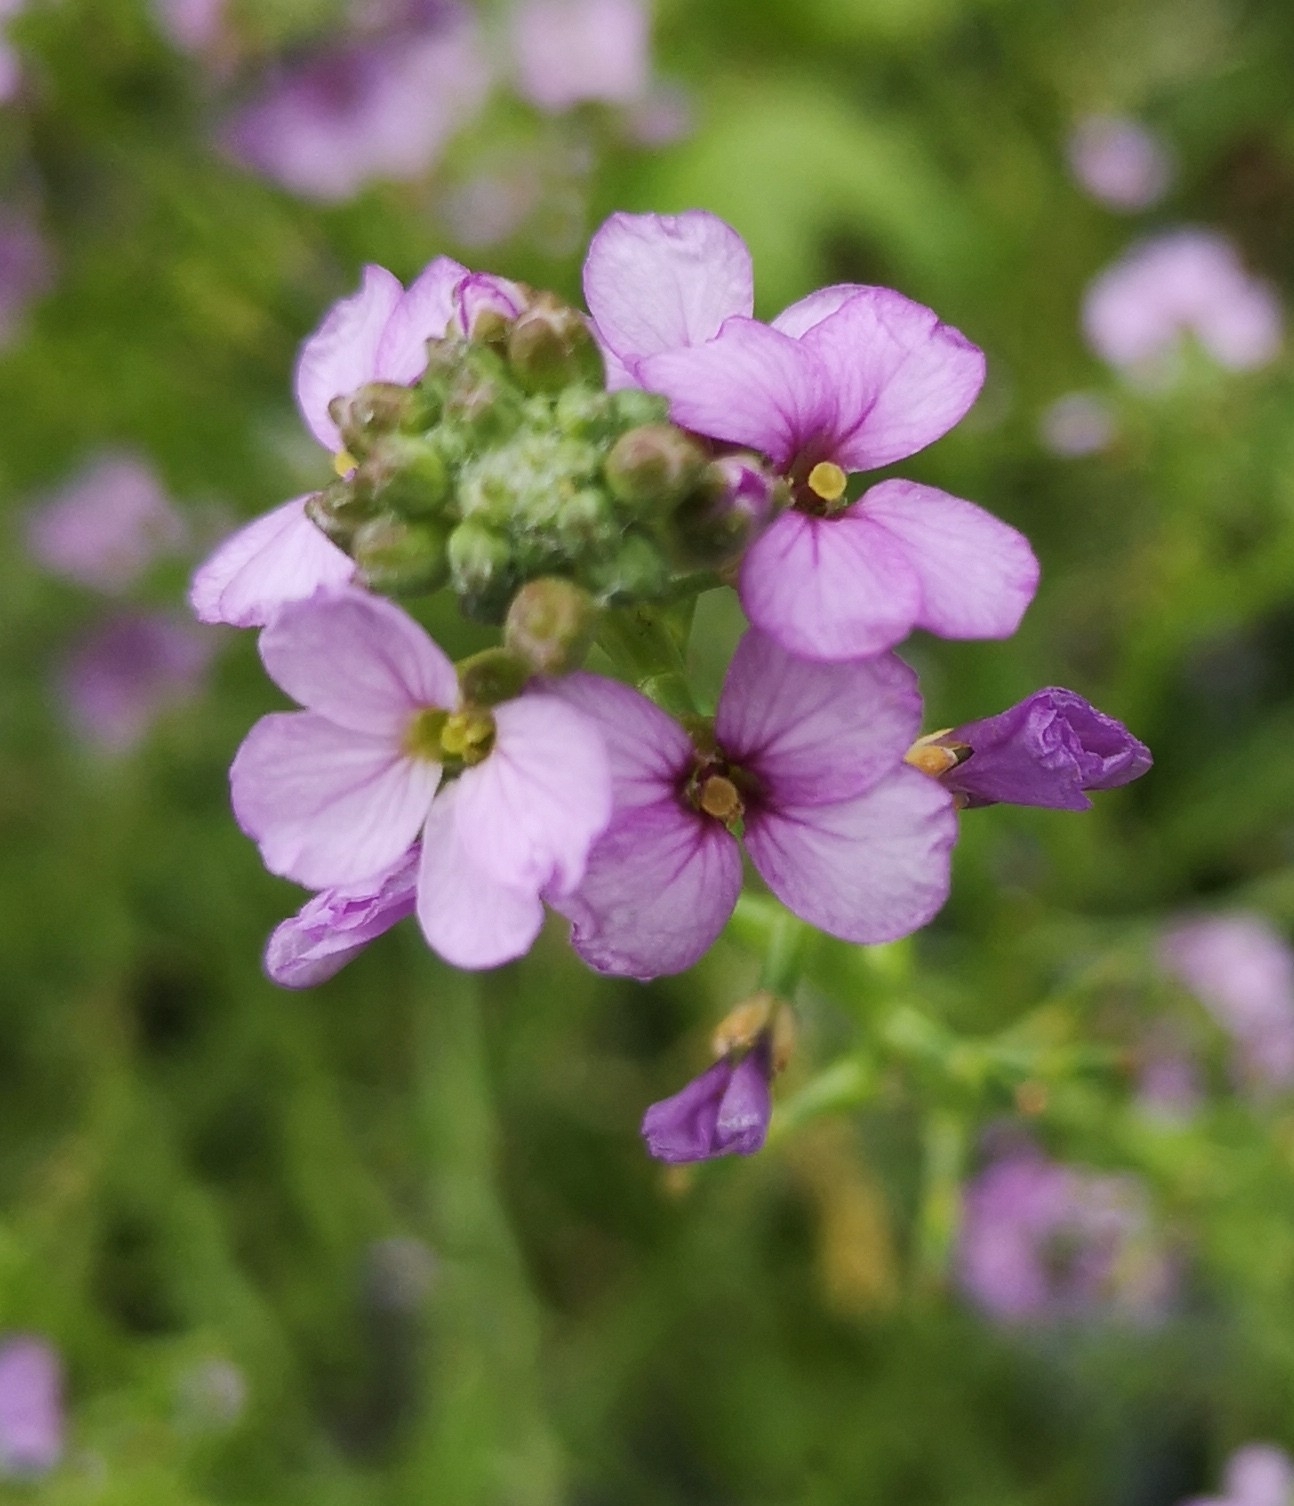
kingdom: Plantae
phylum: Tracheophyta
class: Magnoliopsida
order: Brassicales
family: Brassicaceae
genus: Cakile
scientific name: Cakile maritima
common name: Sea rocket
